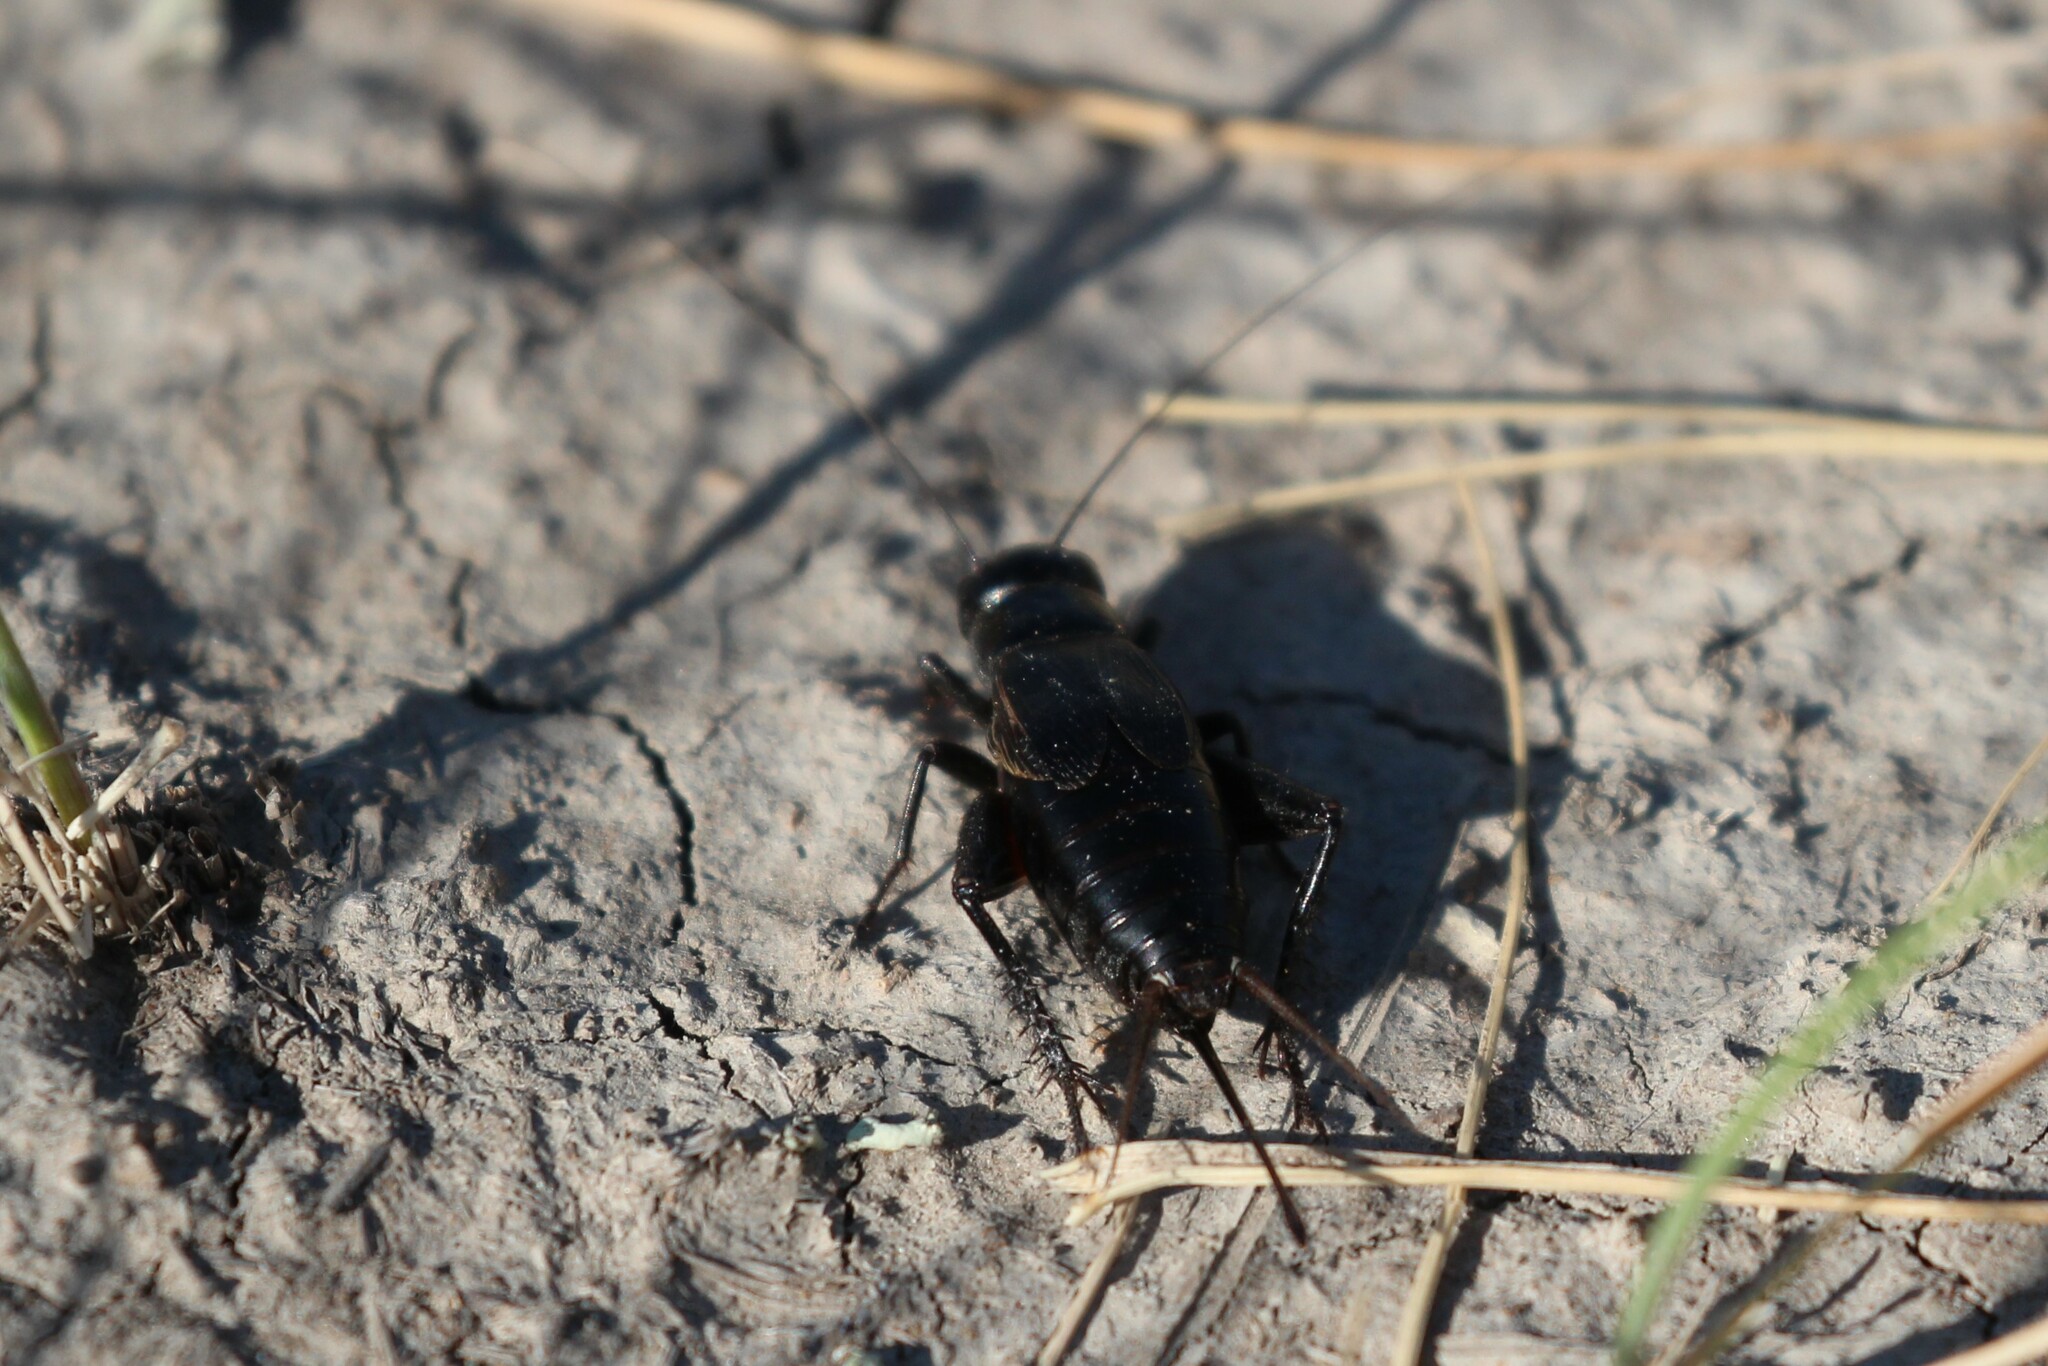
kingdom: Animalia
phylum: Arthropoda
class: Insecta
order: Orthoptera
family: Gryllidae
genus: Gryllus
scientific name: Gryllus pennsylvanicus
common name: Fall field cricket
